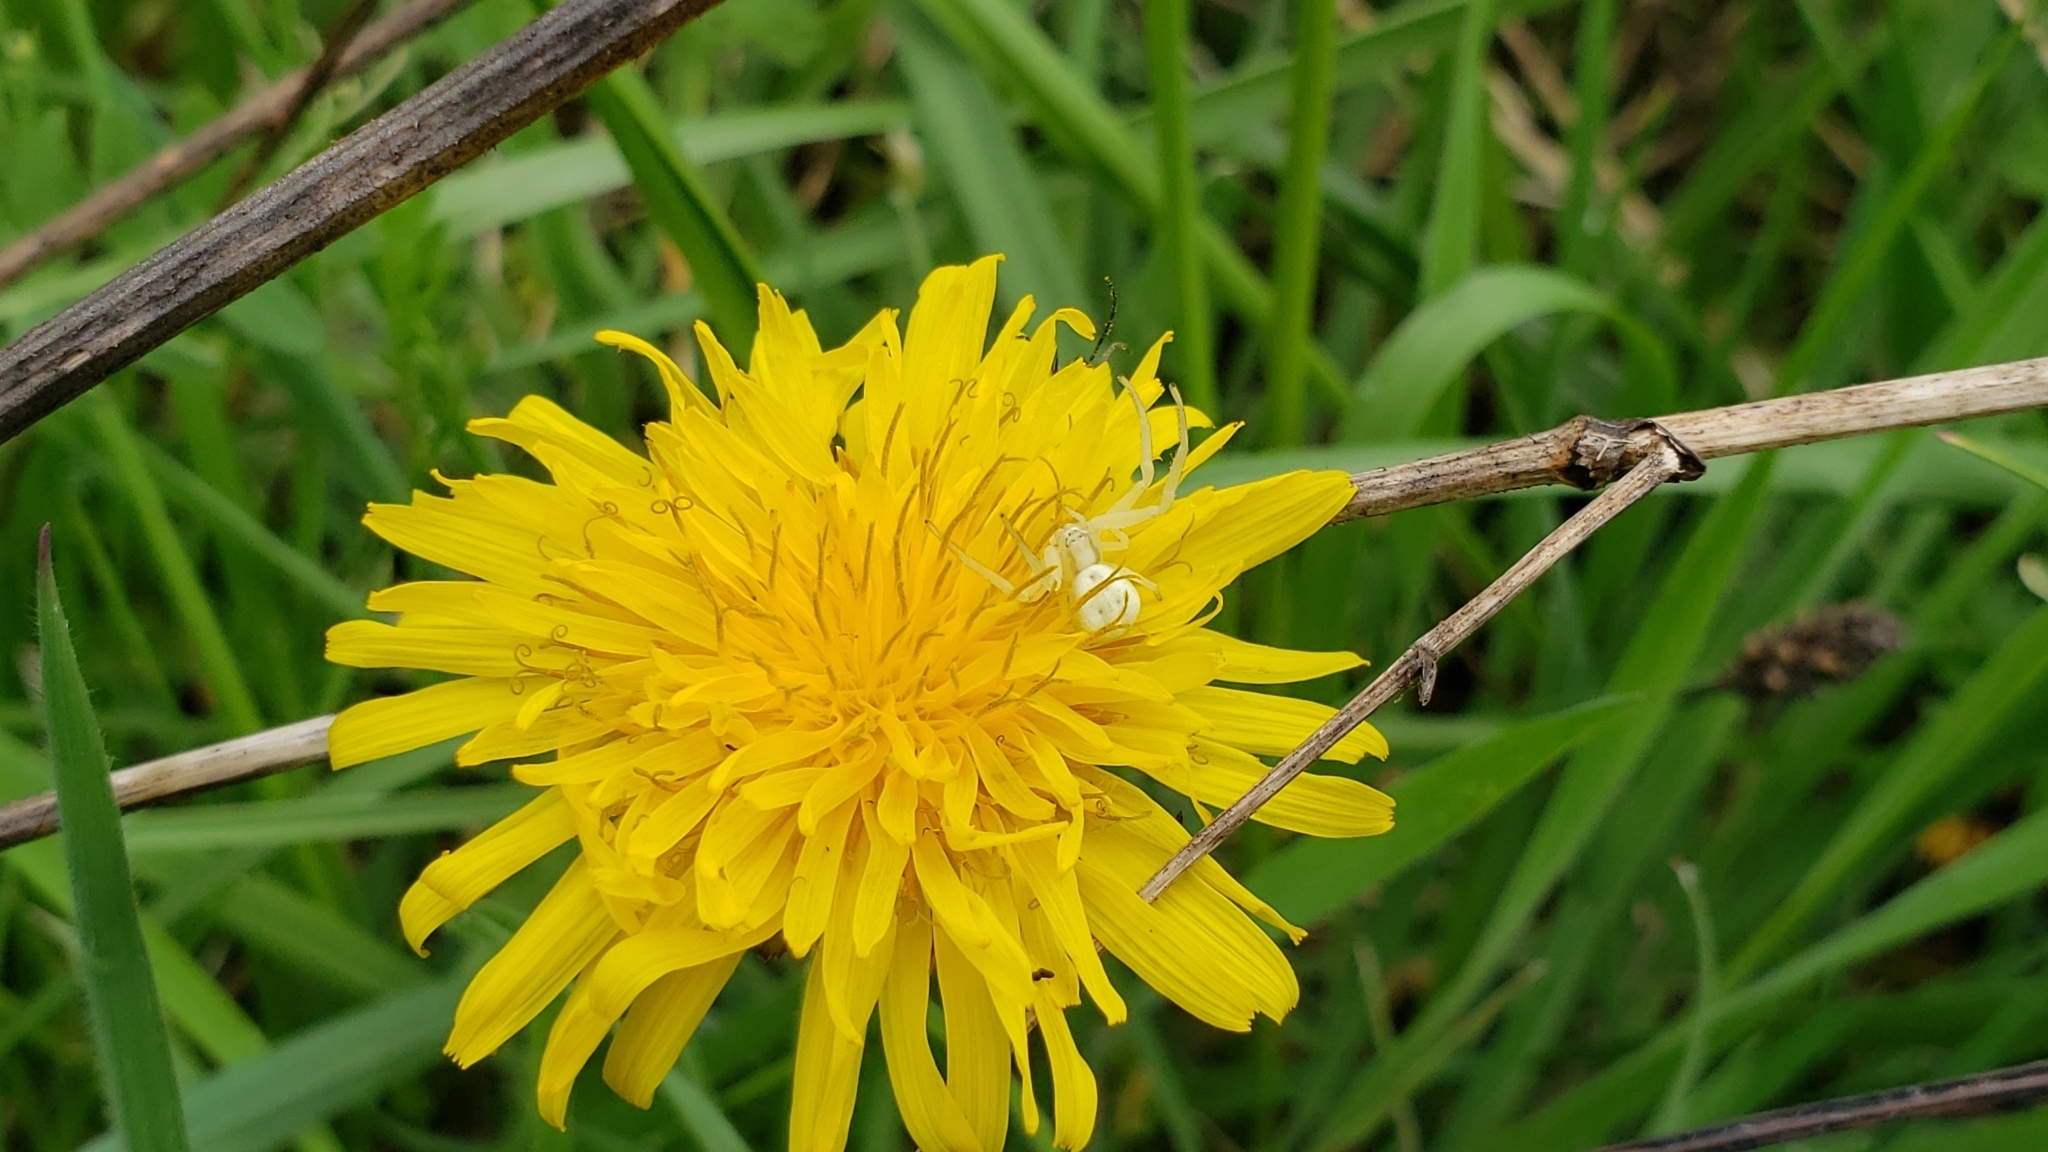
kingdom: Animalia
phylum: Arthropoda
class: Arachnida
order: Araneae
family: Thomisidae
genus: Misumena
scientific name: Misumena vatia
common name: Goldenrod crab spider
